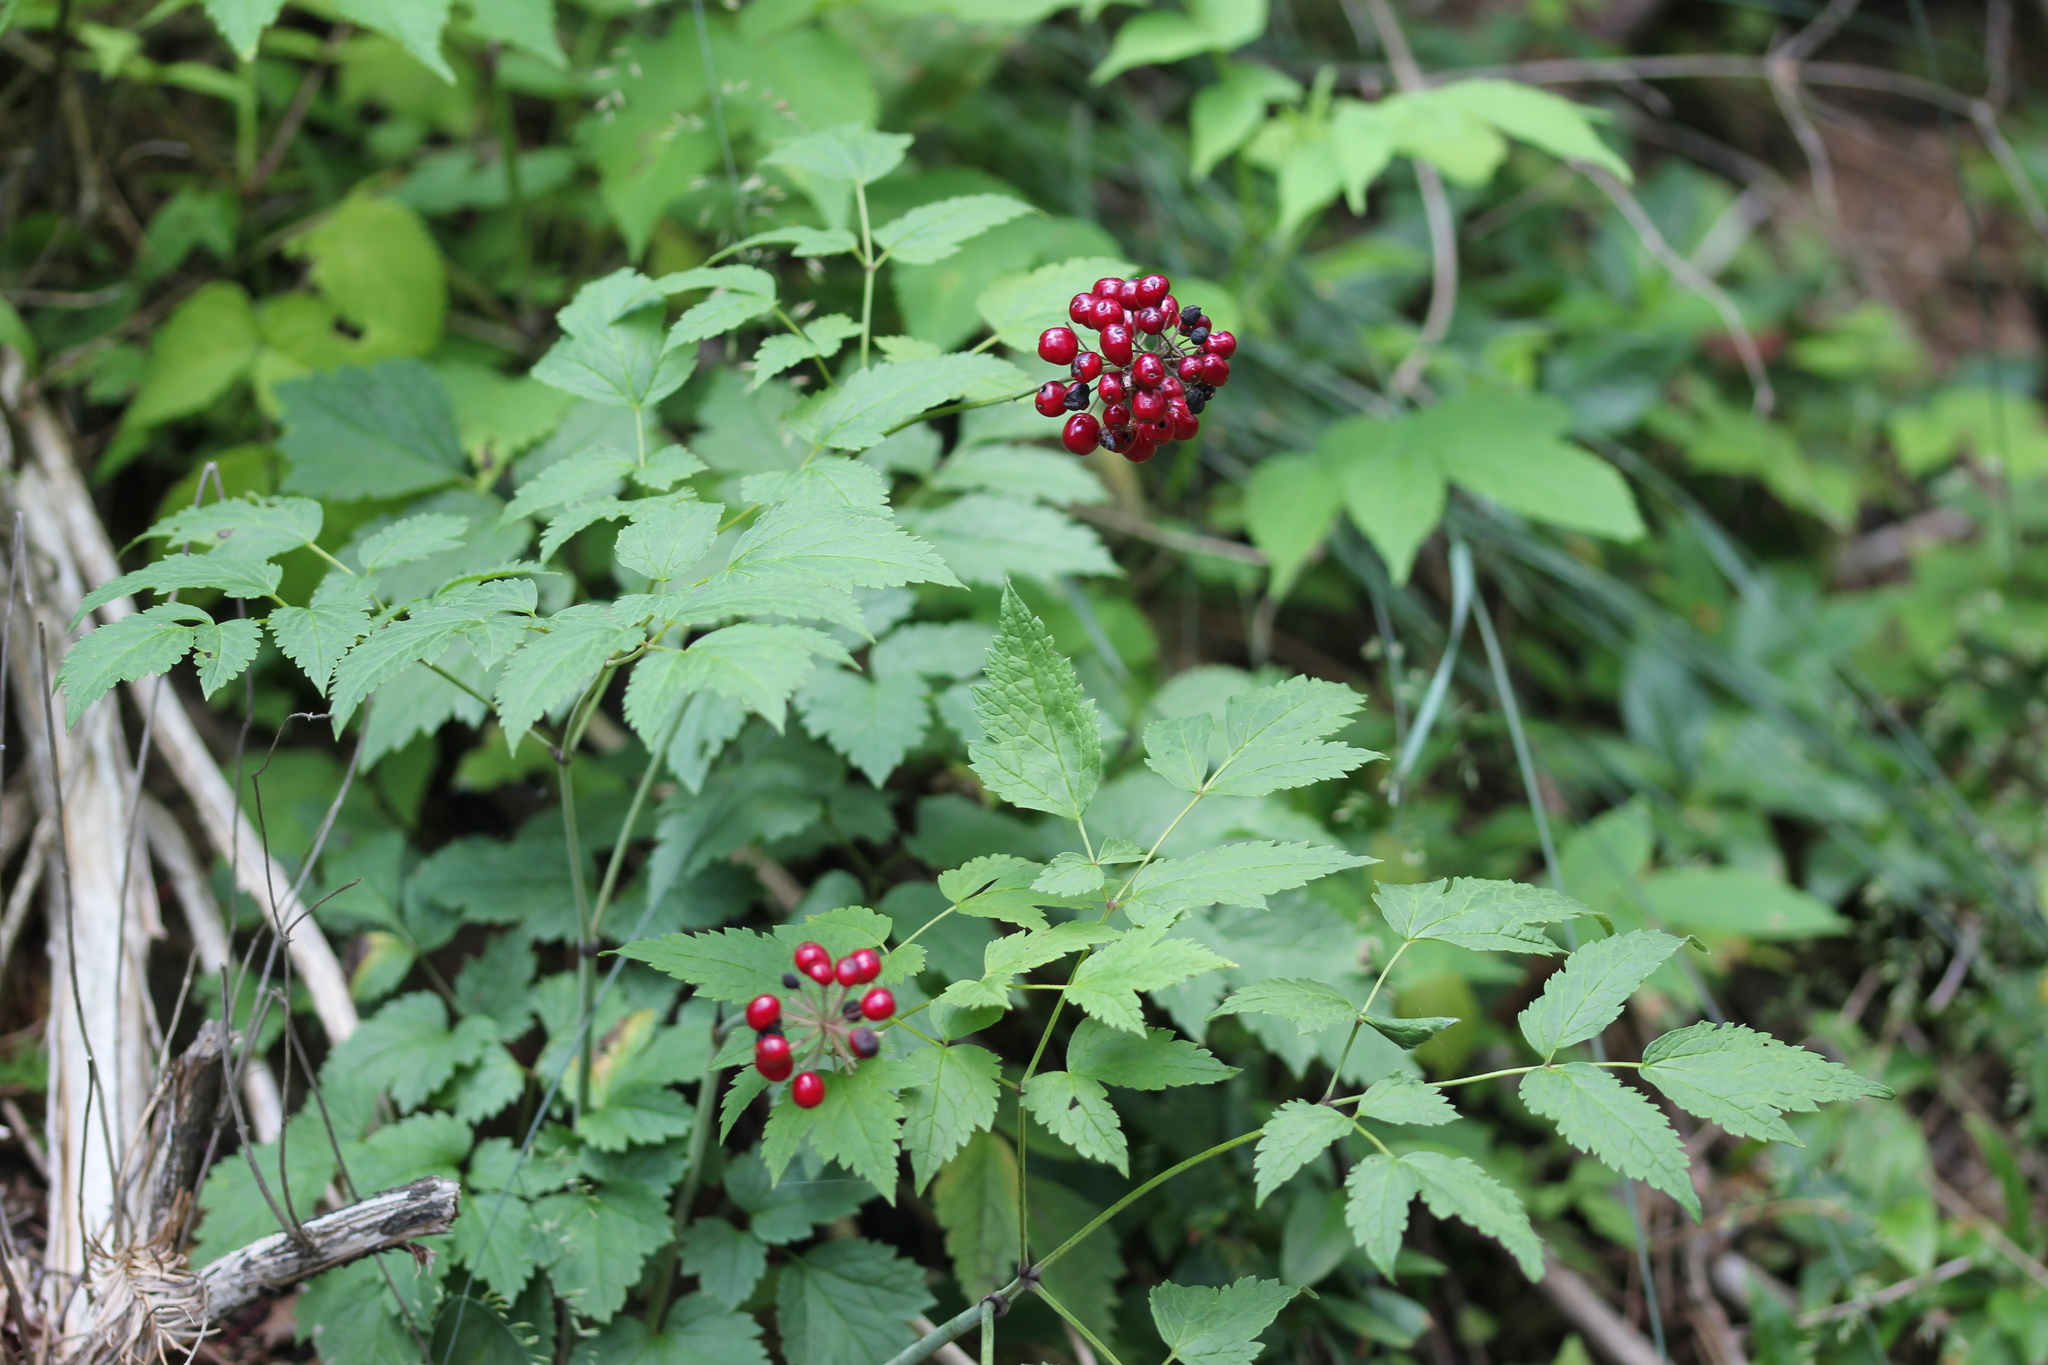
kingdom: Plantae
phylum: Tracheophyta
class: Magnoliopsida
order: Ranunculales
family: Ranunculaceae
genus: Actaea
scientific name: Actaea rubra
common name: Red baneberry
